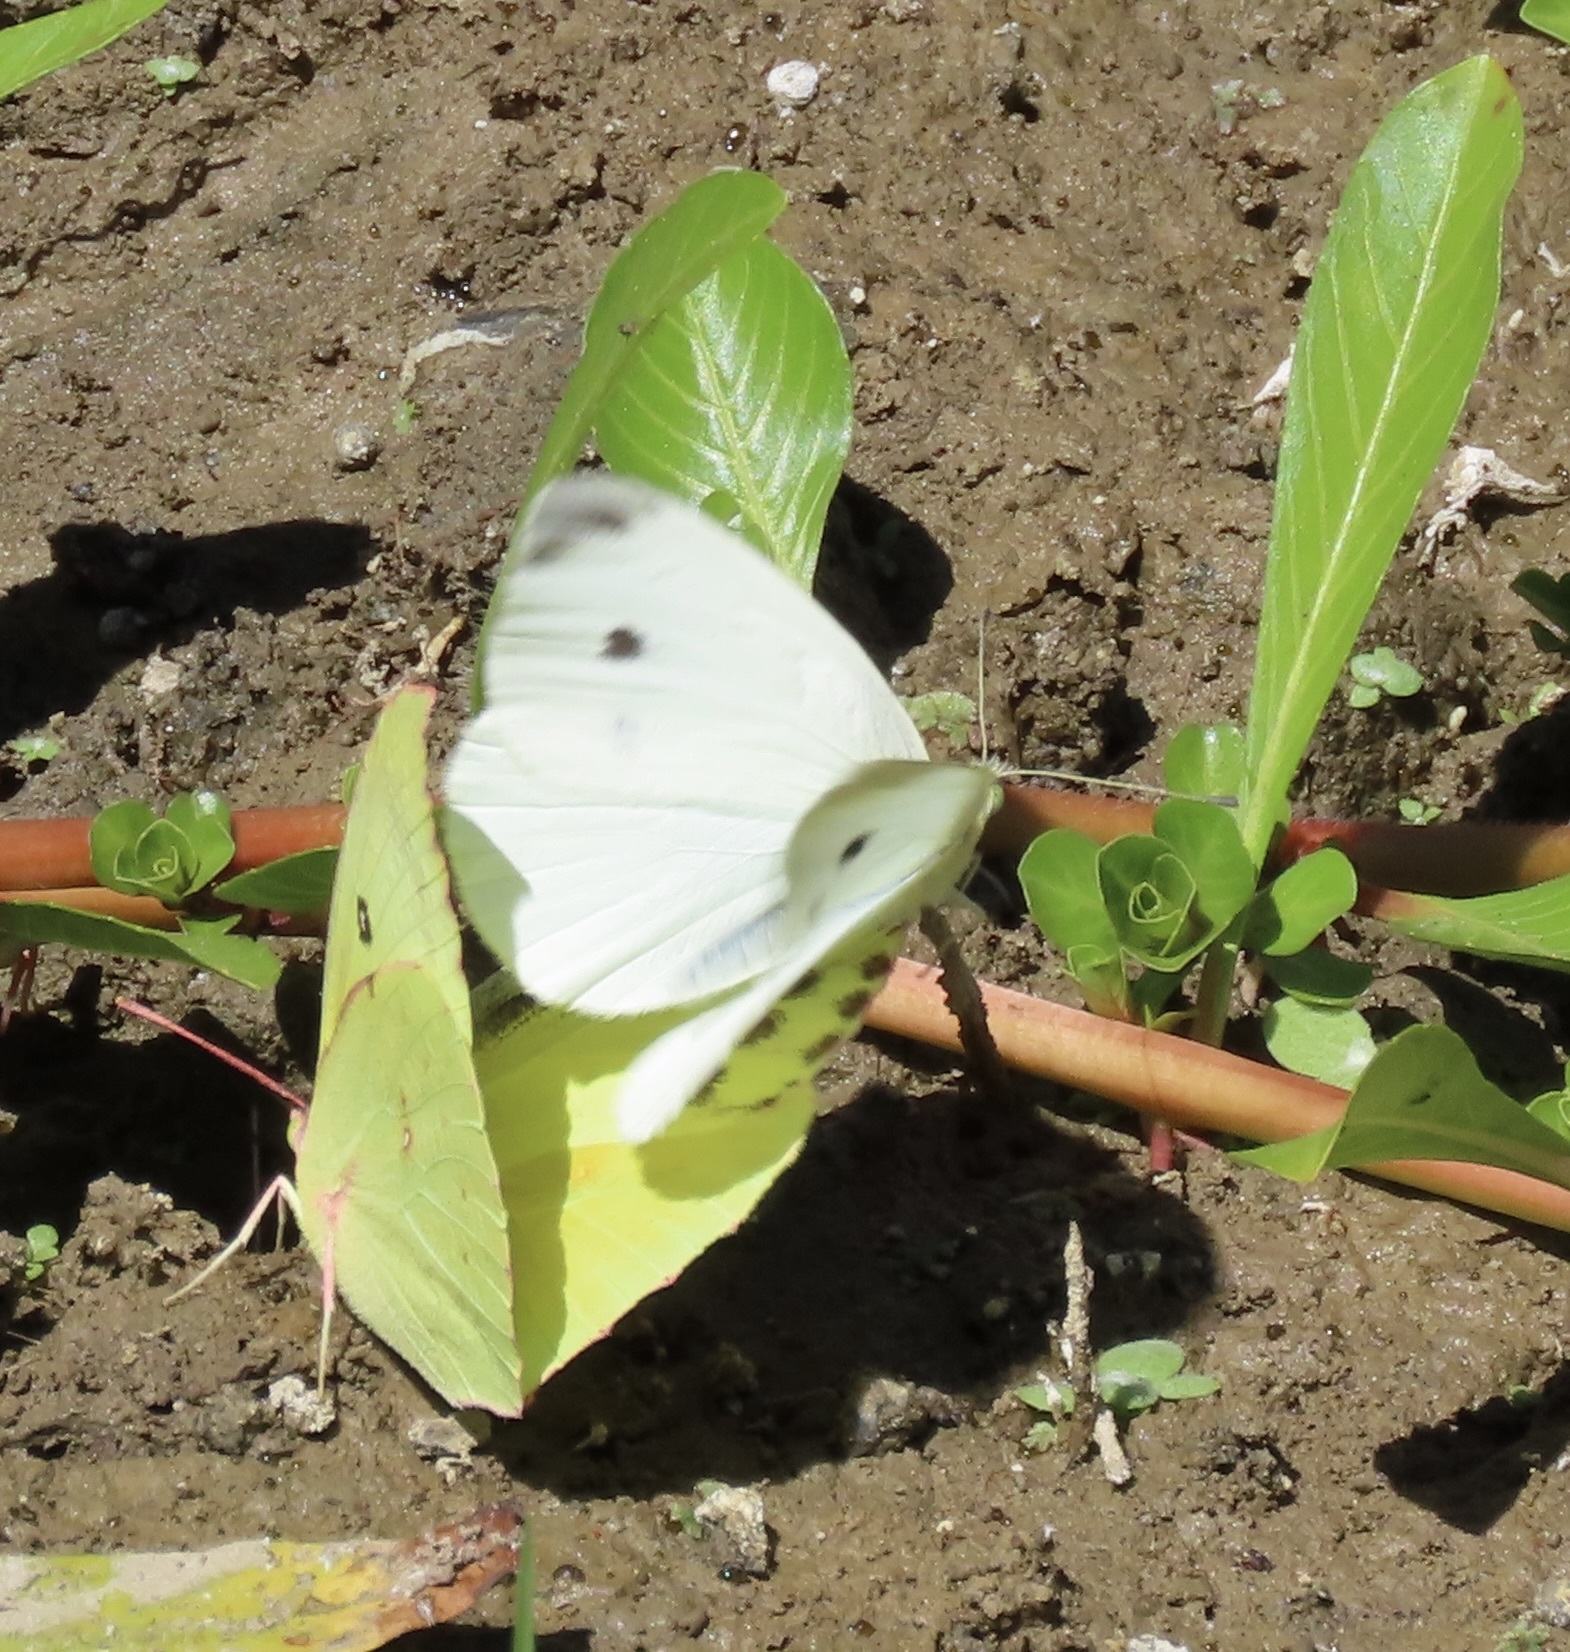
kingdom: Animalia
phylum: Arthropoda
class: Insecta
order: Lepidoptera
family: Pieridae
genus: Zerene
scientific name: Zerene eurydice
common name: California dogface
